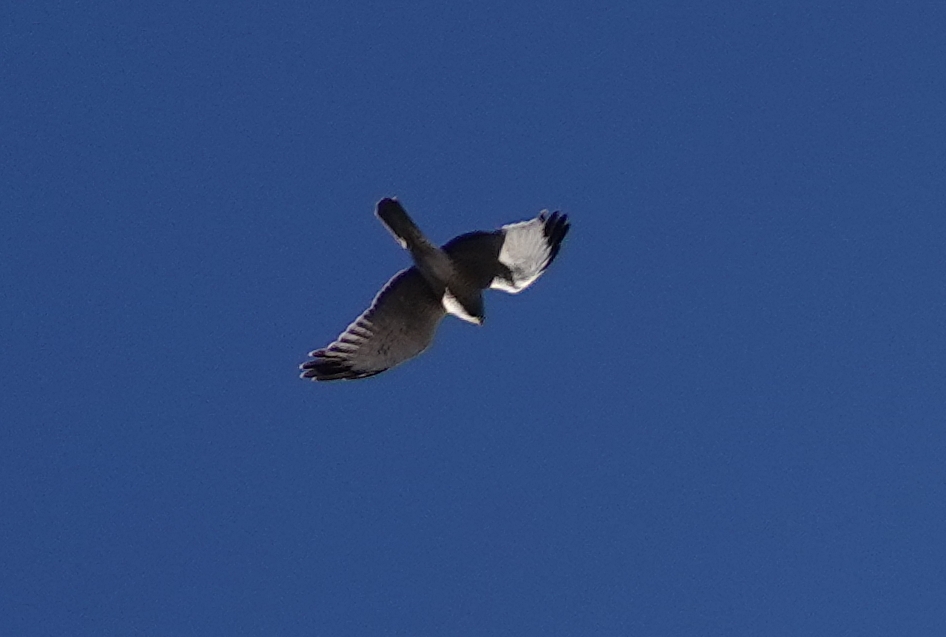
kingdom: Animalia
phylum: Chordata
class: Aves
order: Accipitriformes
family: Accipitridae
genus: Circus
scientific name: Circus cyaneus
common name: Hen harrier
